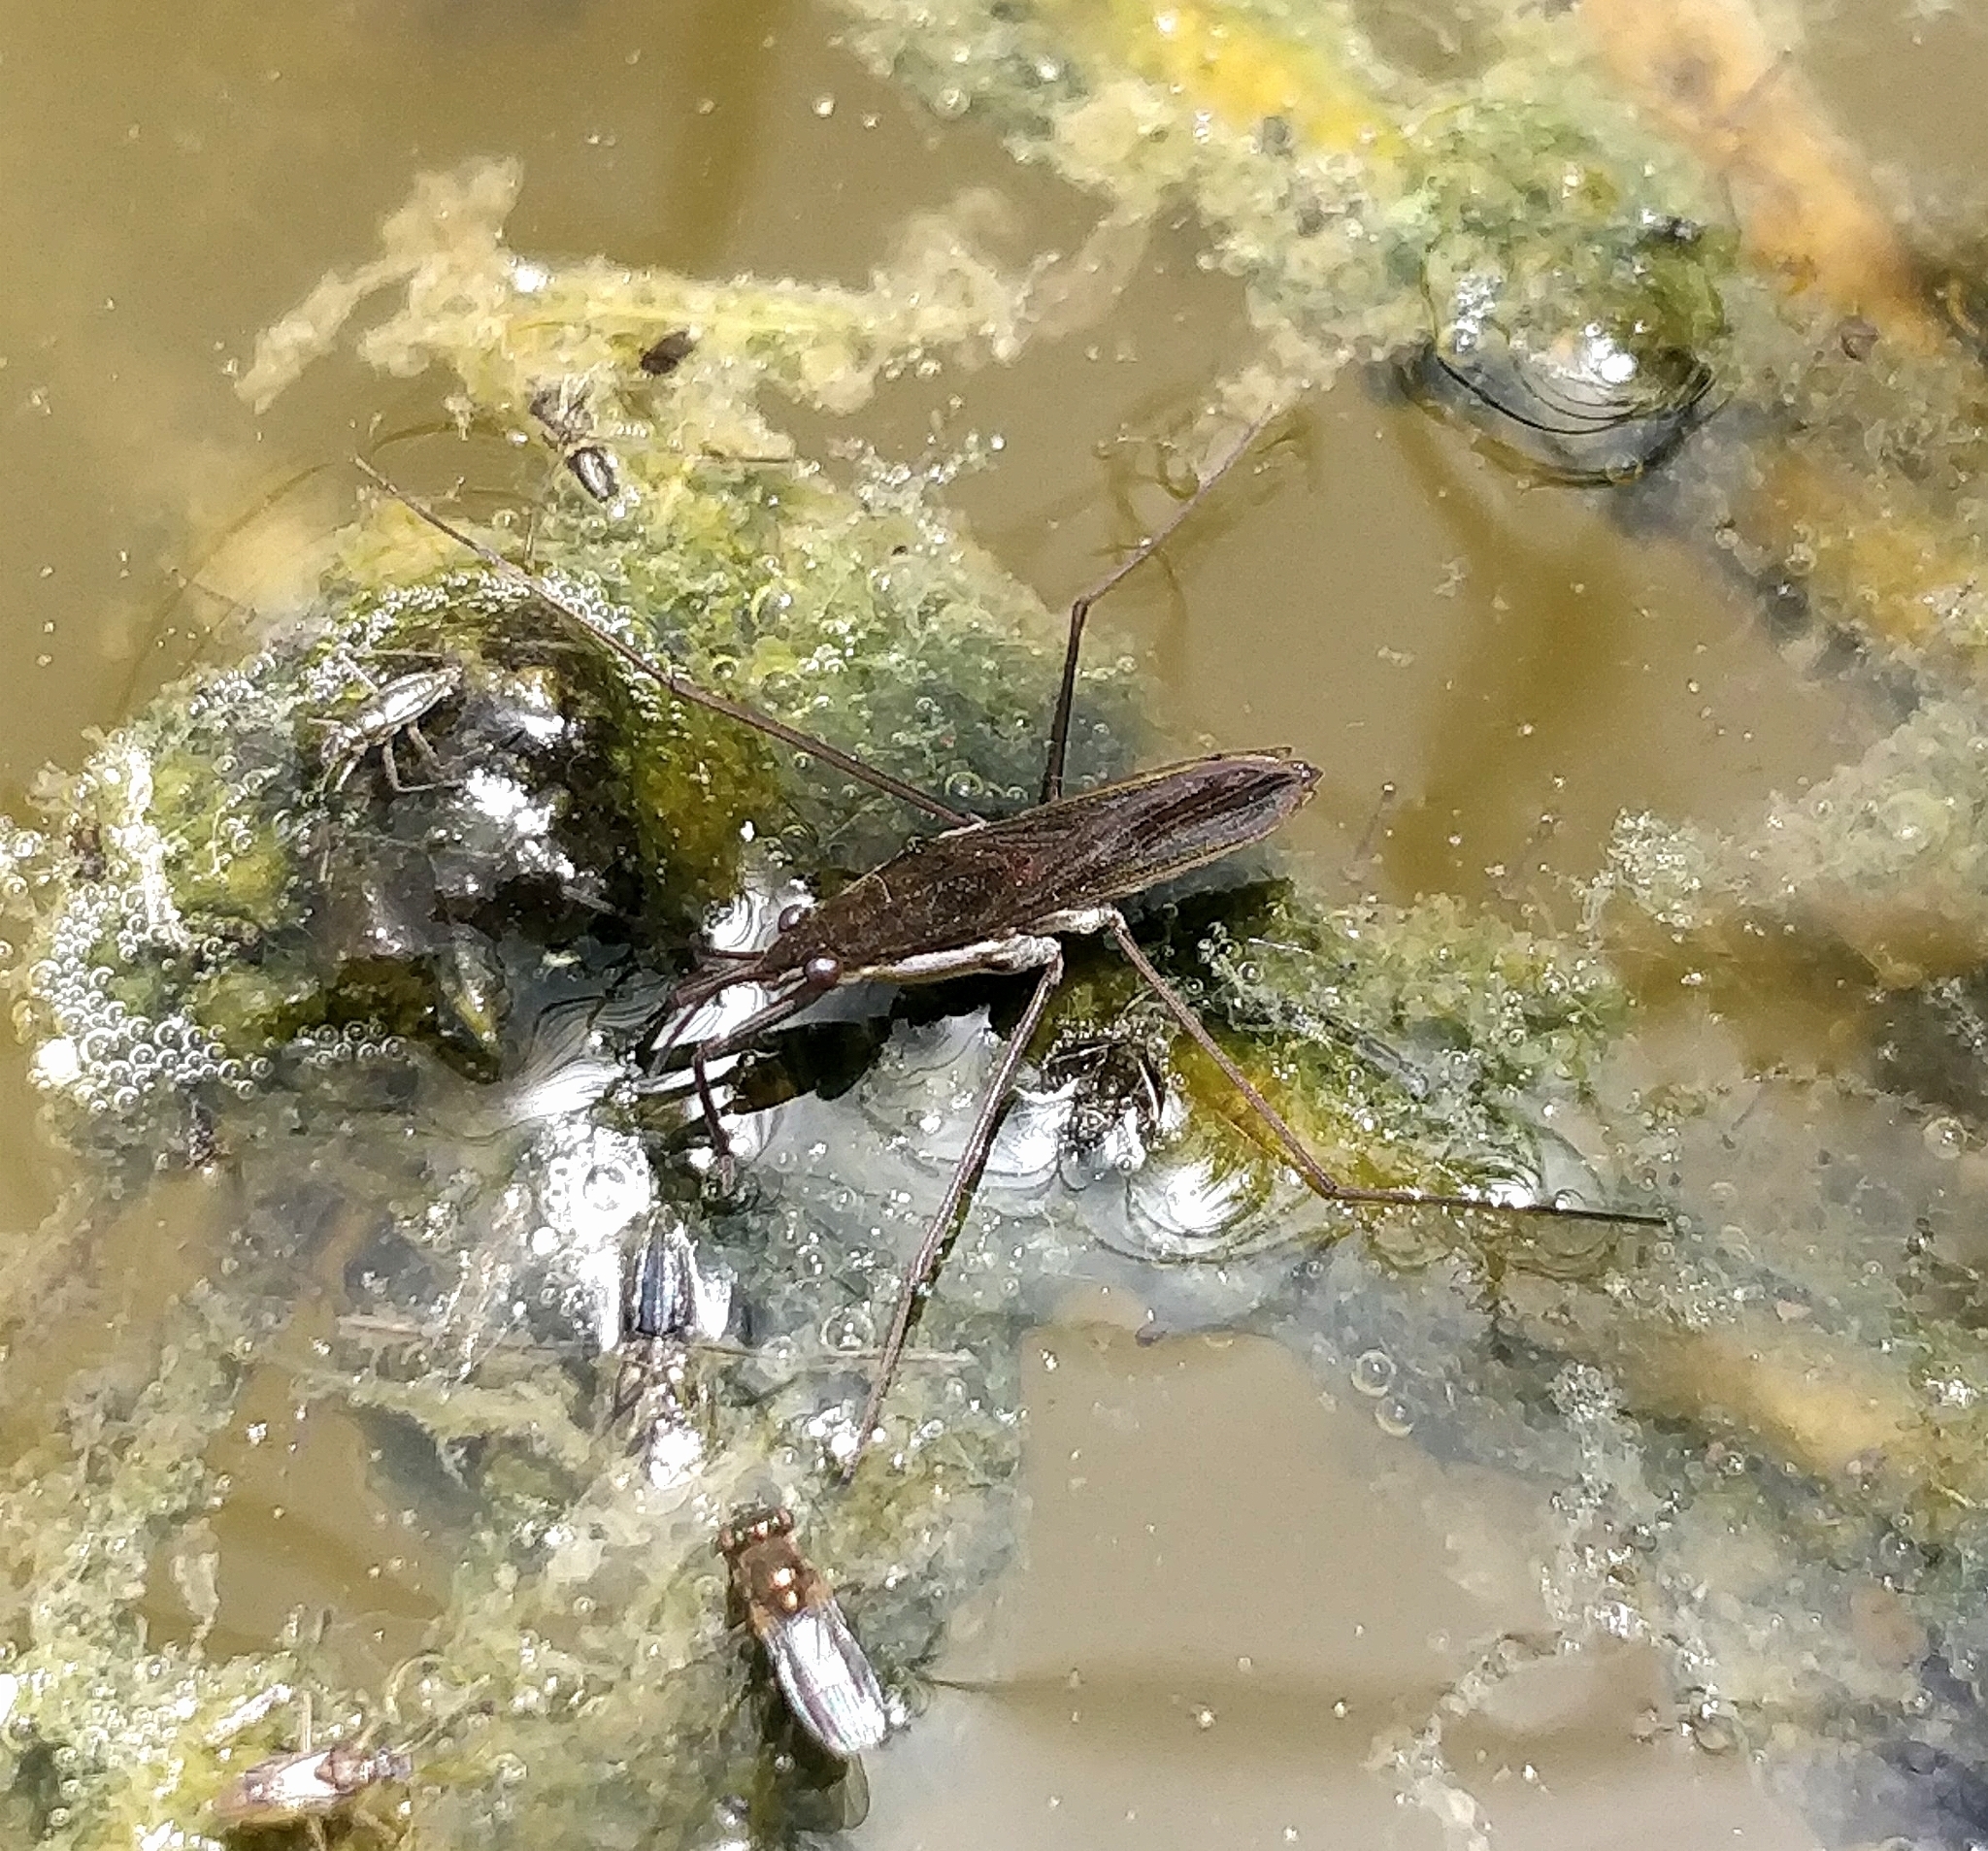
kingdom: Animalia
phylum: Arthropoda
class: Insecta
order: Hemiptera
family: Gerridae
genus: Gerris
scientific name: Gerris thoracicus
